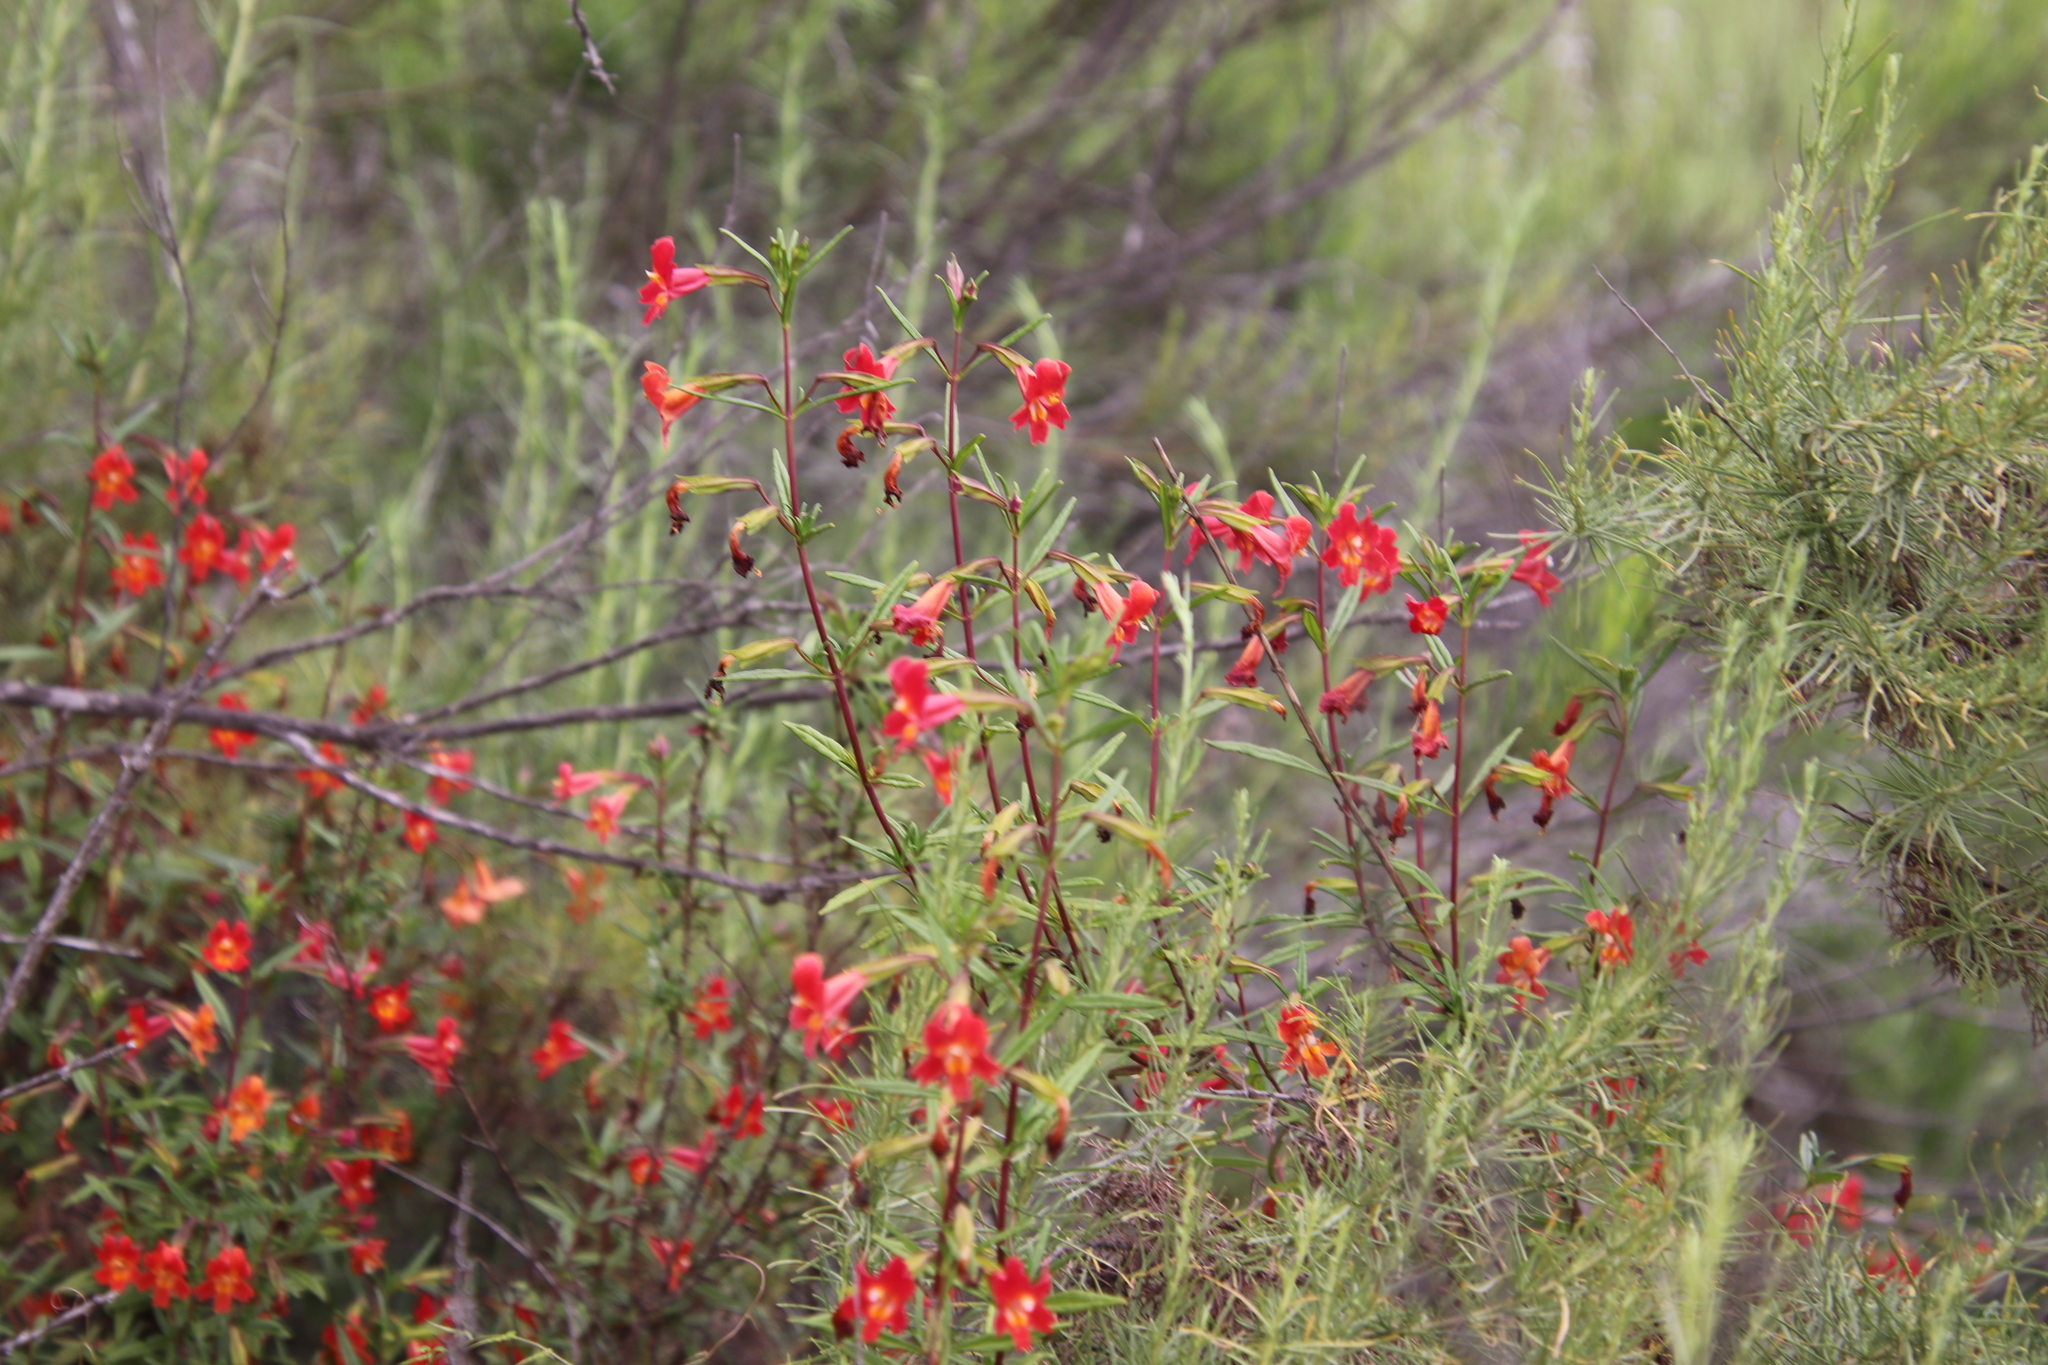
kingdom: Plantae
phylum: Tracheophyta
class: Magnoliopsida
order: Lamiales
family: Phrymaceae
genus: Diplacus
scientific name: Diplacus puniceus
